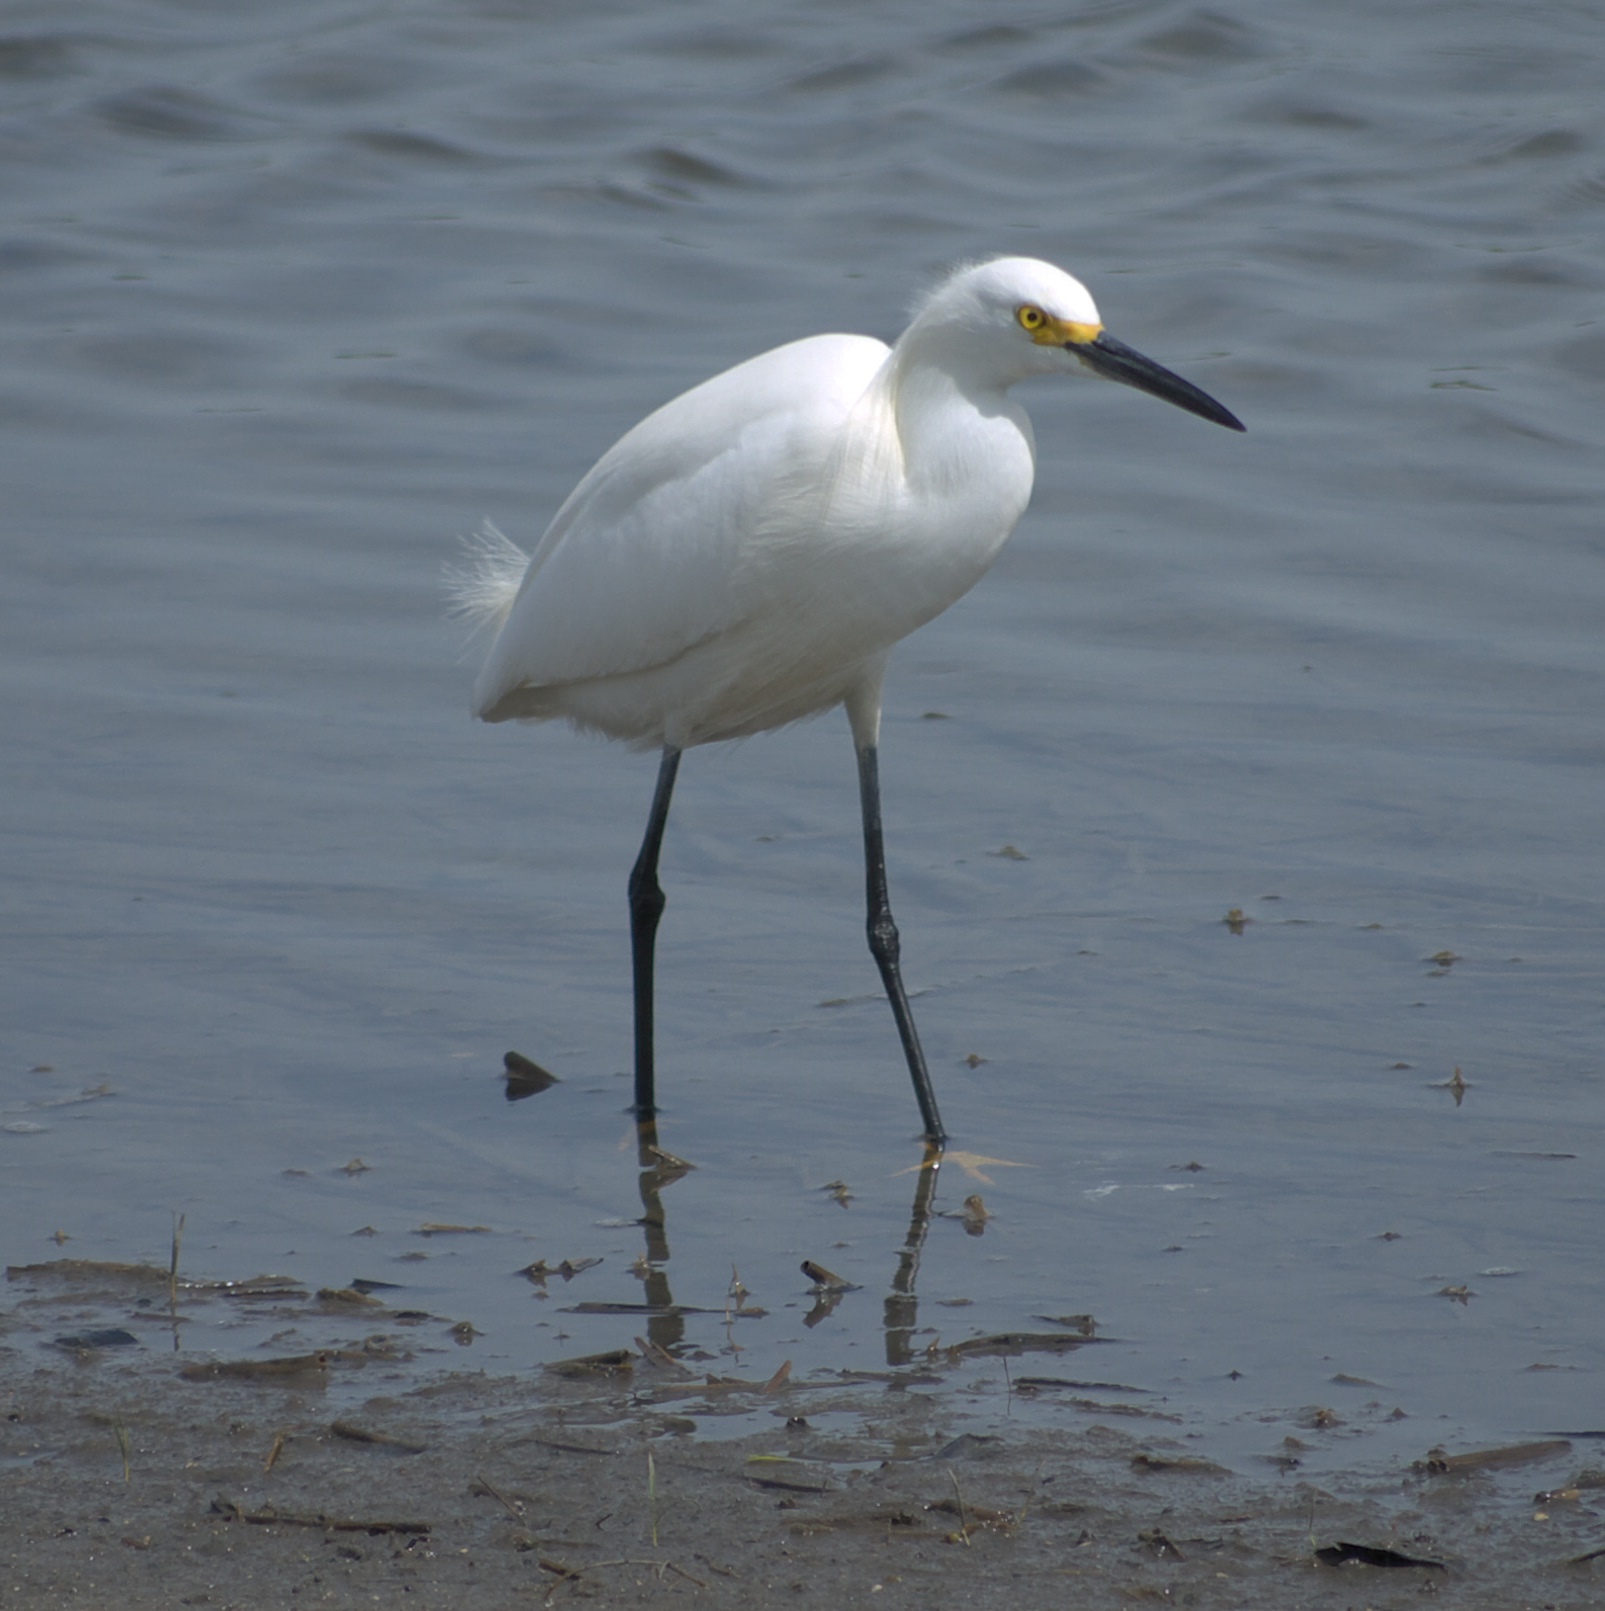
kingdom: Animalia
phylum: Chordata
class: Aves
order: Pelecaniformes
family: Ardeidae
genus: Egretta
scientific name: Egretta thula
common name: Snowy egret
